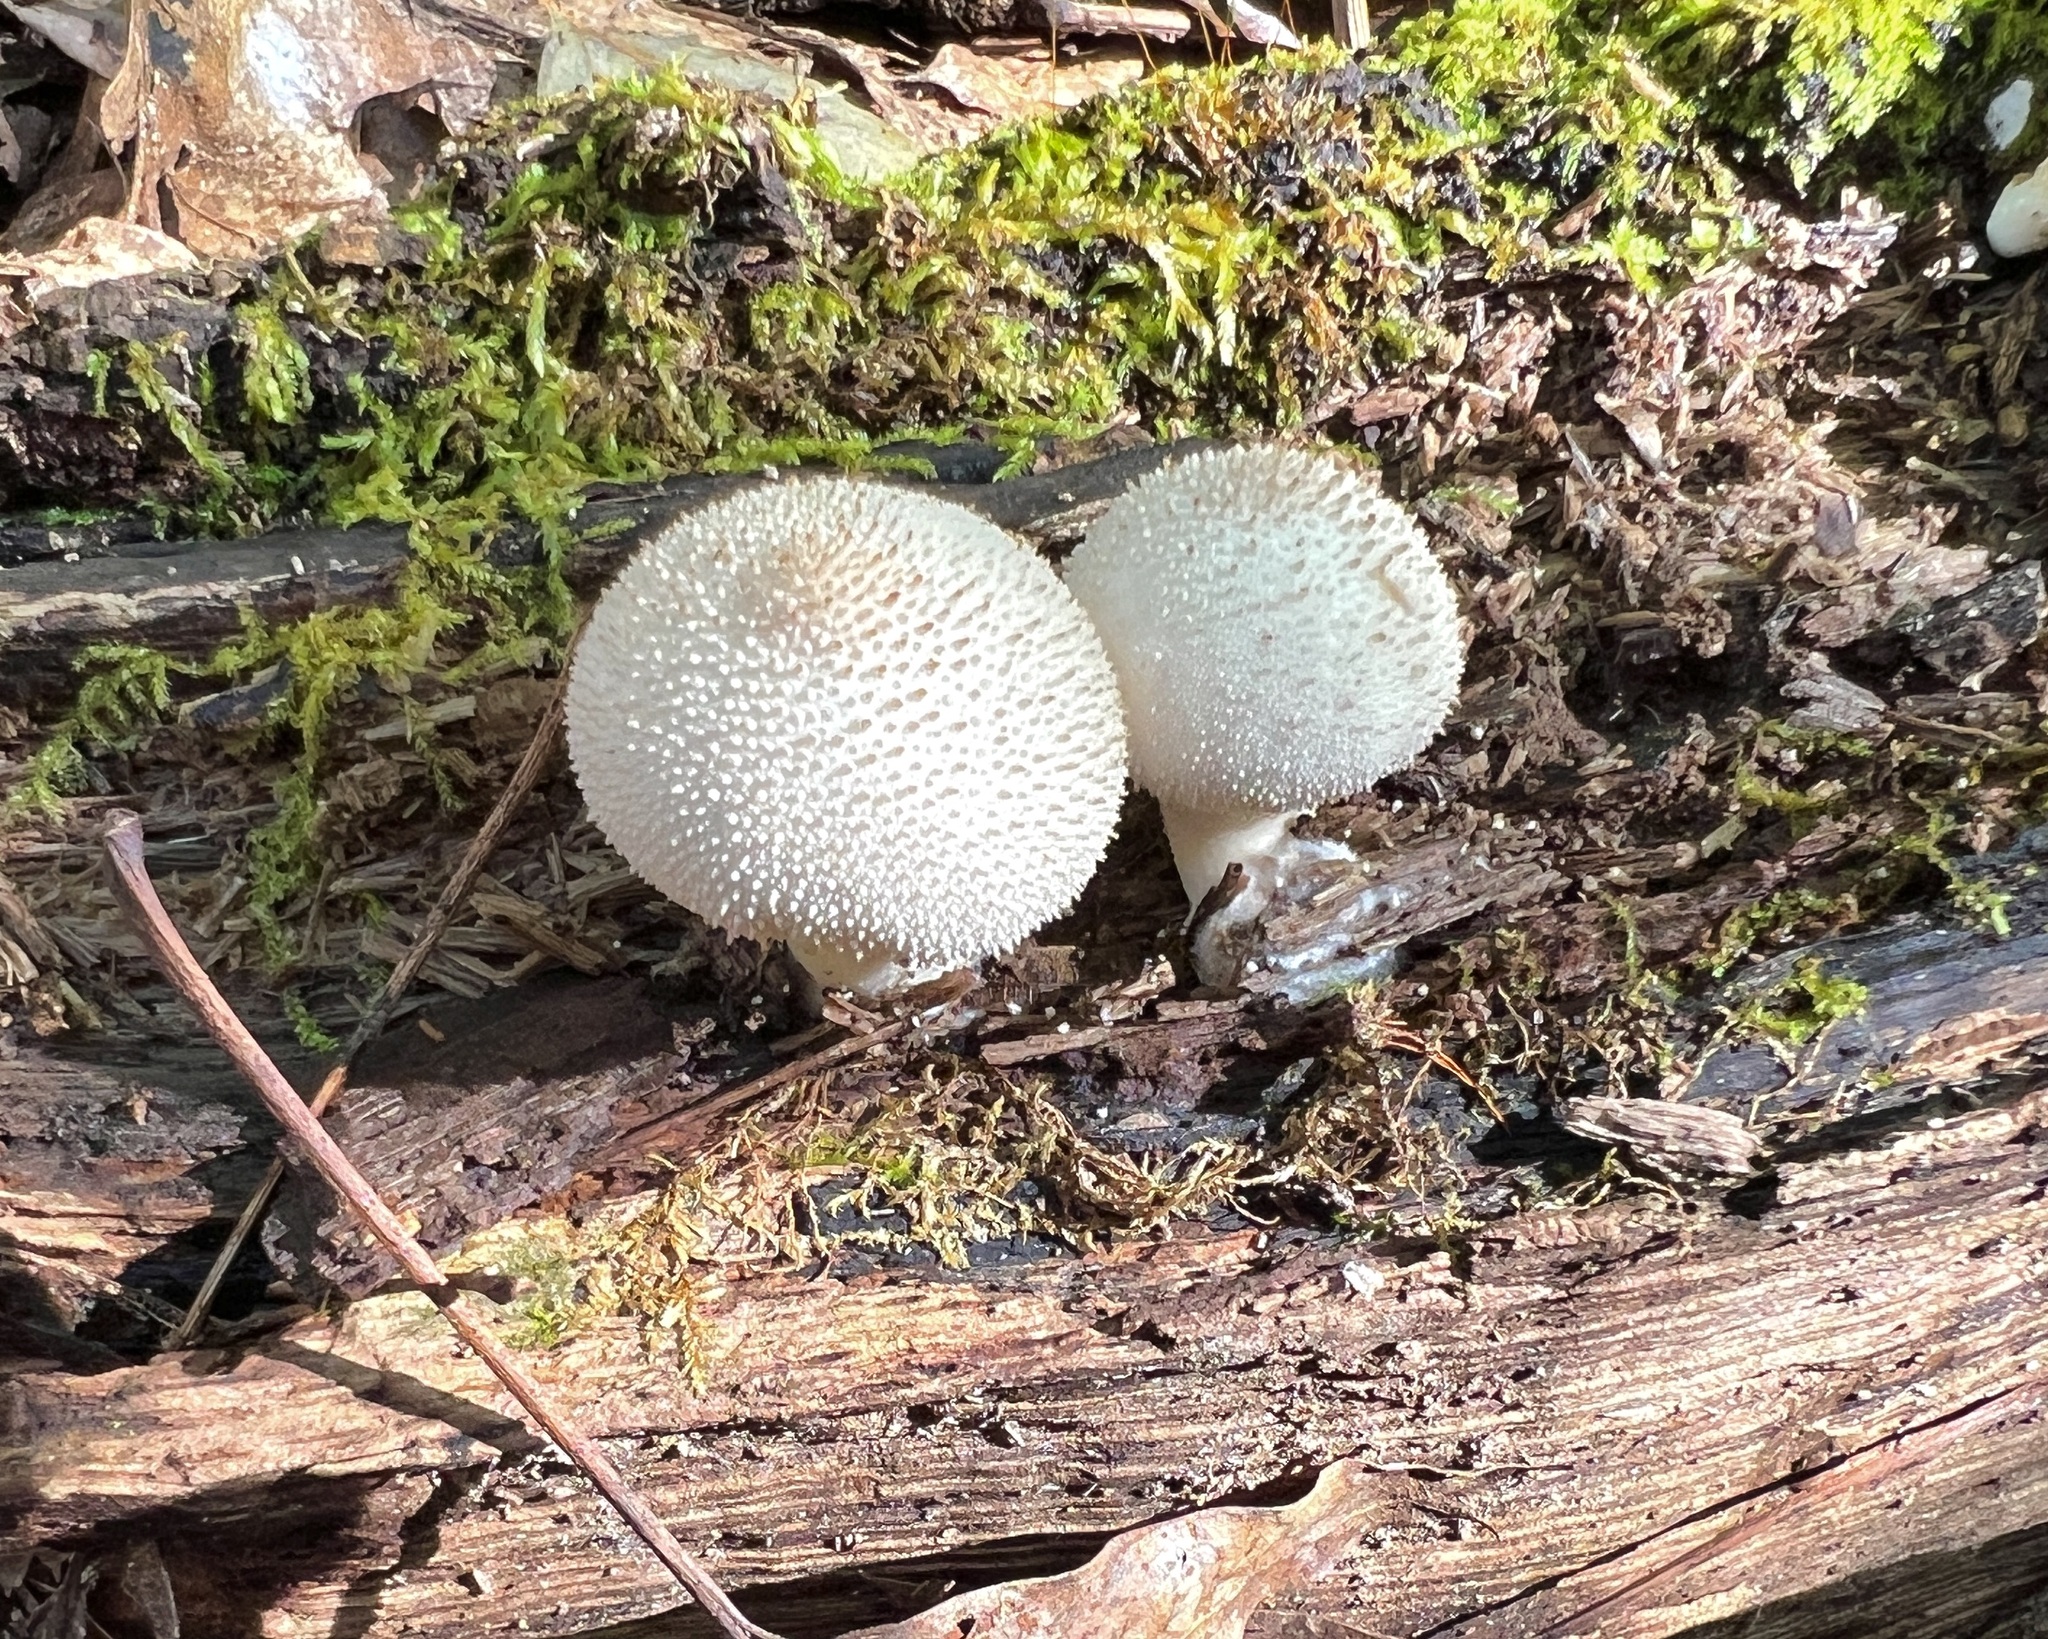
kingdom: Fungi
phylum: Basidiomycota
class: Agaricomycetes
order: Agaricales
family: Lycoperdaceae
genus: Lycoperdon
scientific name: Lycoperdon perlatum
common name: Common puffball
